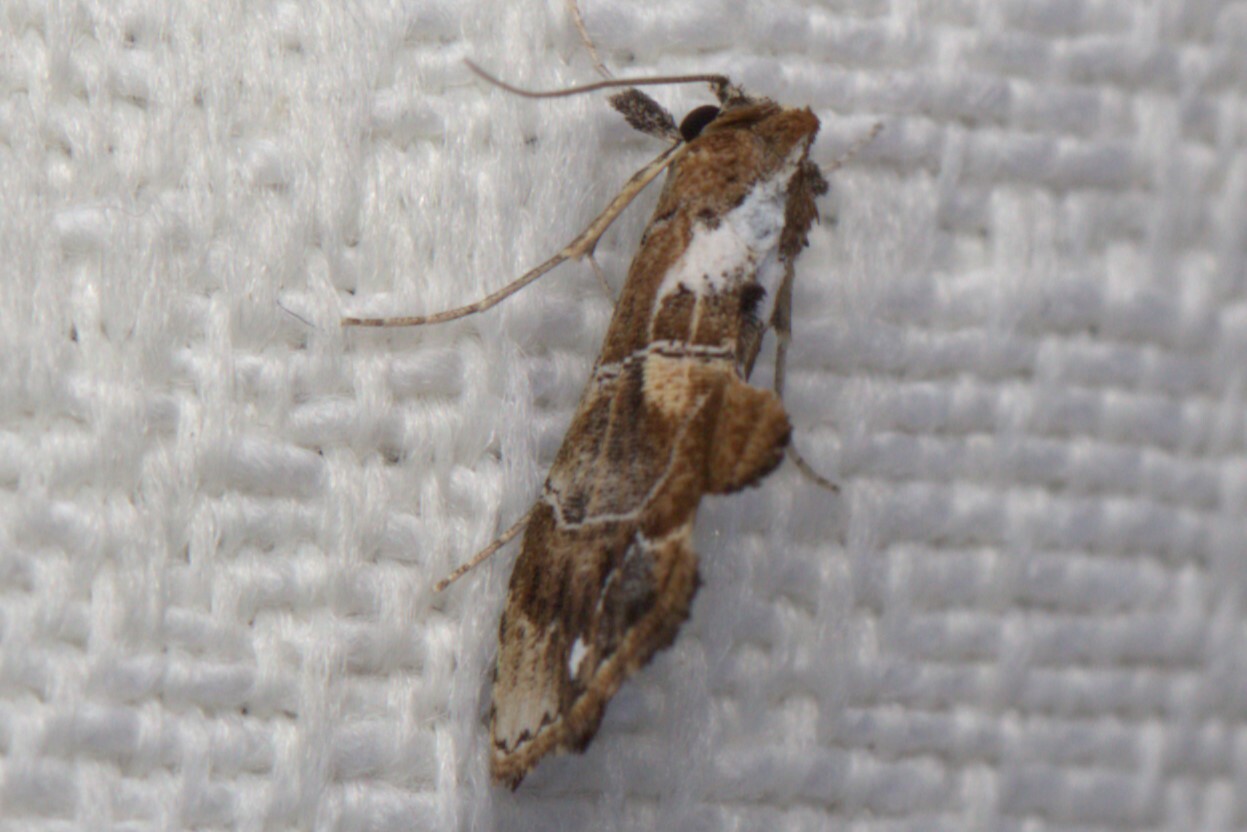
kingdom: Animalia
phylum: Arthropoda
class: Insecta
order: Lepidoptera
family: Erebidae
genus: Arrade
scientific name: Arrade leucocosmalis
